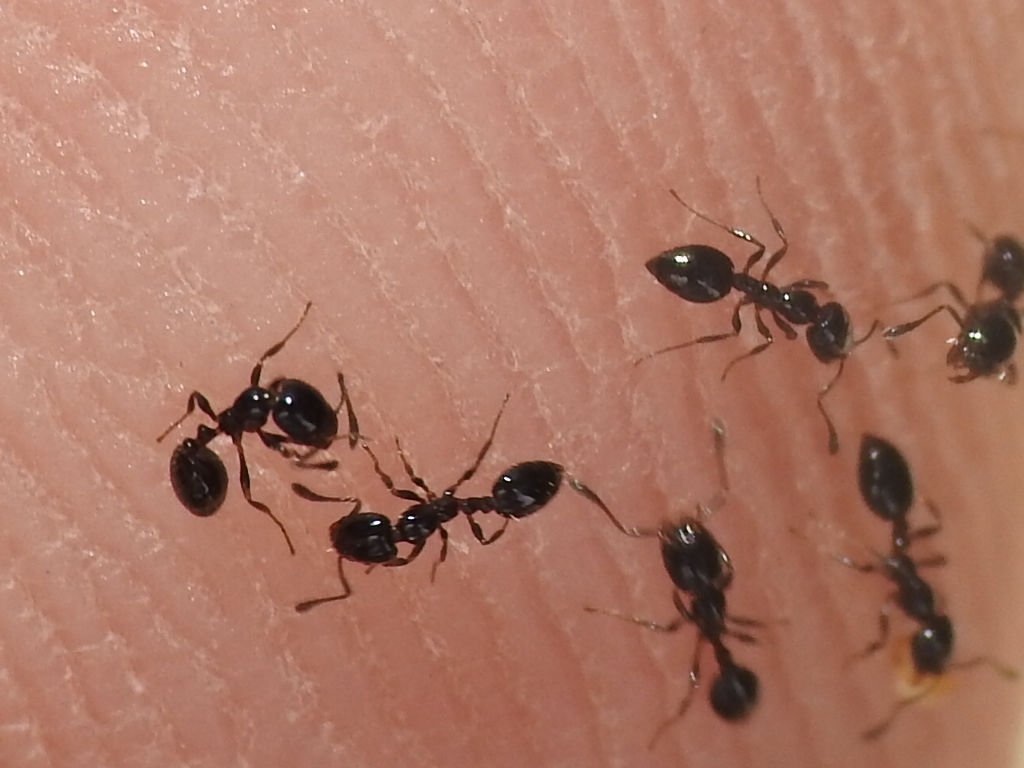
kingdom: Animalia
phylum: Arthropoda
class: Insecta
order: Hymenoptera
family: Formicidae
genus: Monomorium
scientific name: Monomorium minimum
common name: Little black ant
